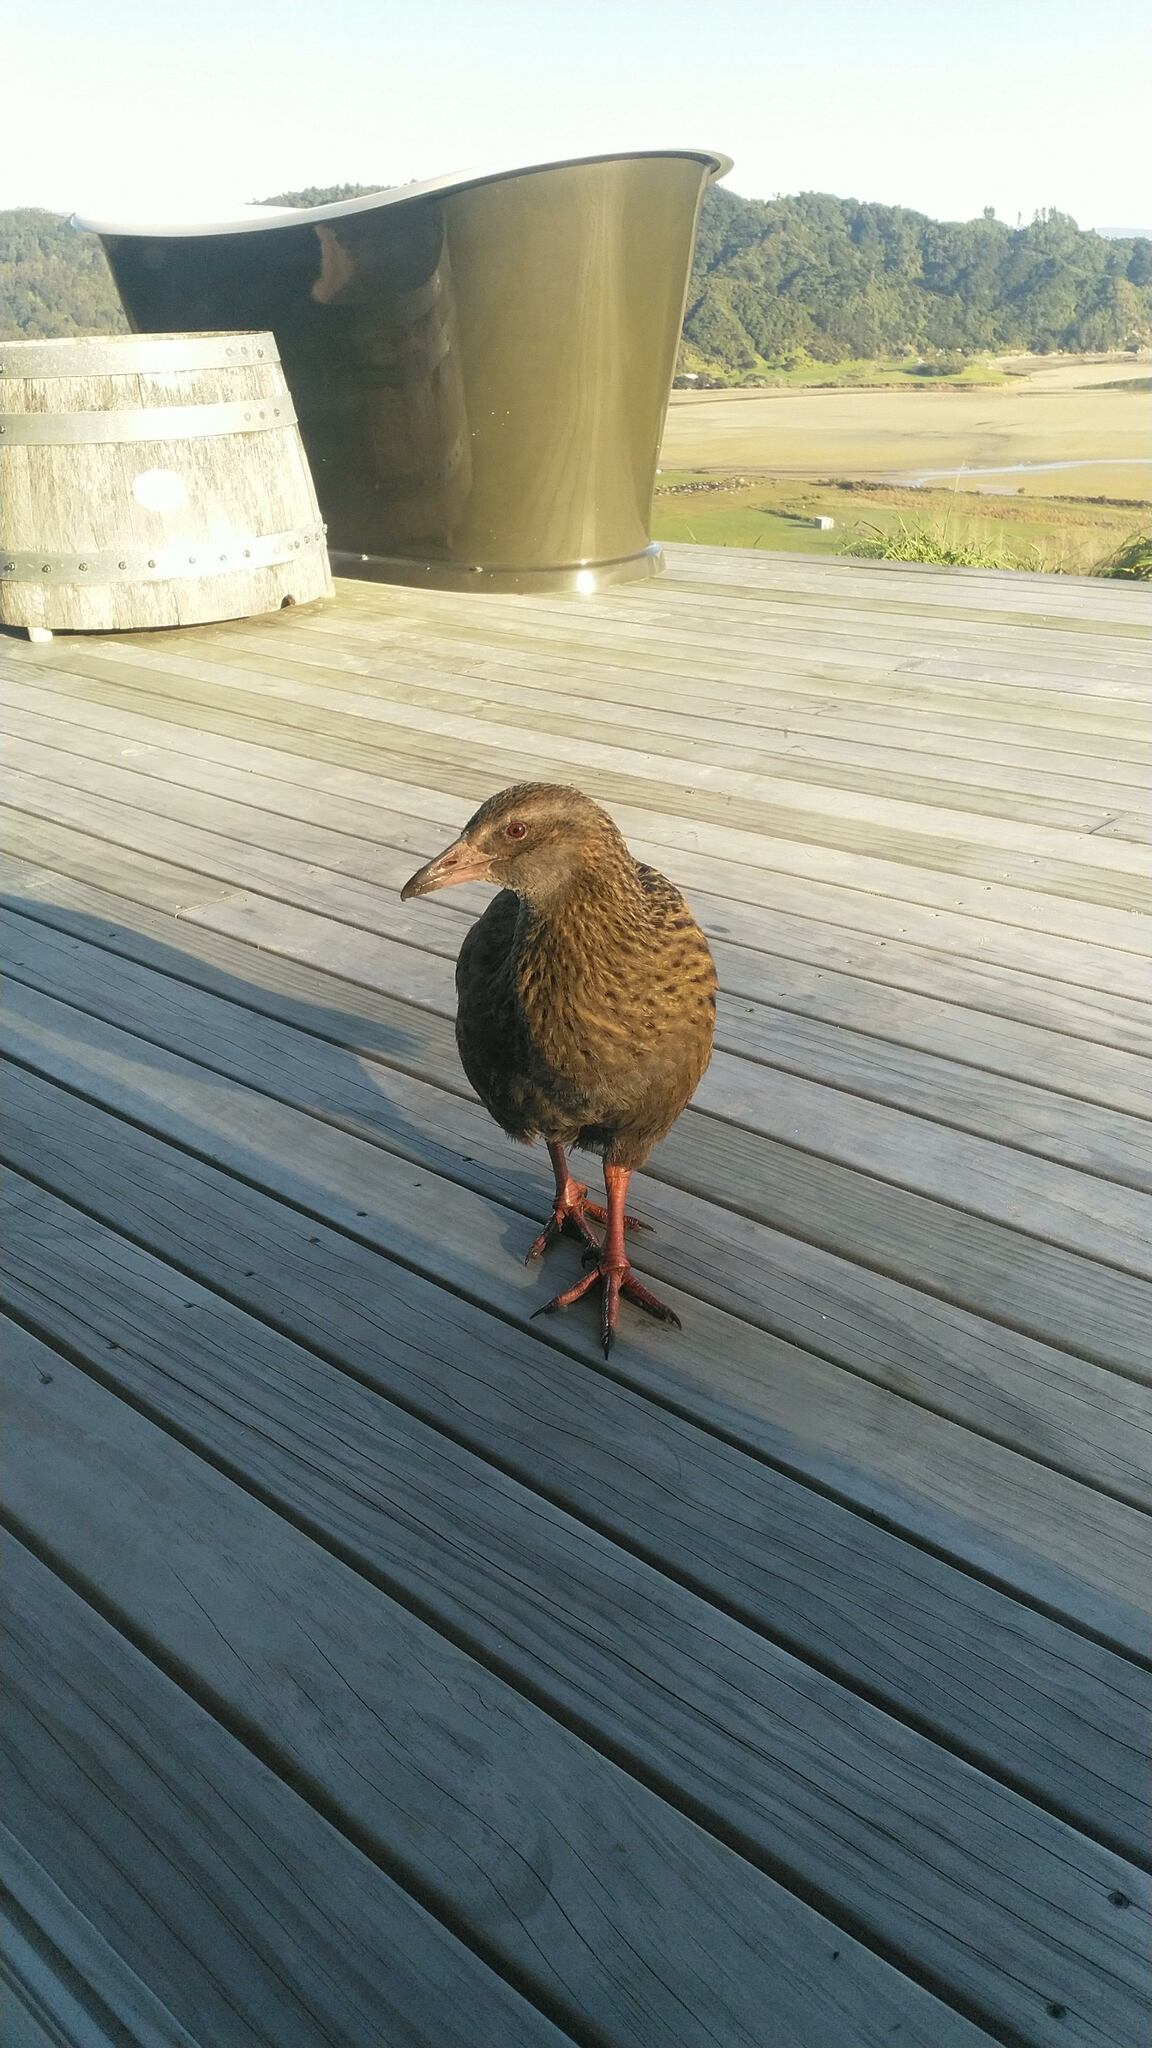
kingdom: Animalia
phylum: Chordata
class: Aves
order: Gruiformes
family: Rallidae
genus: Gallirallus
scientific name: Gallirallus australis
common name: Weka
